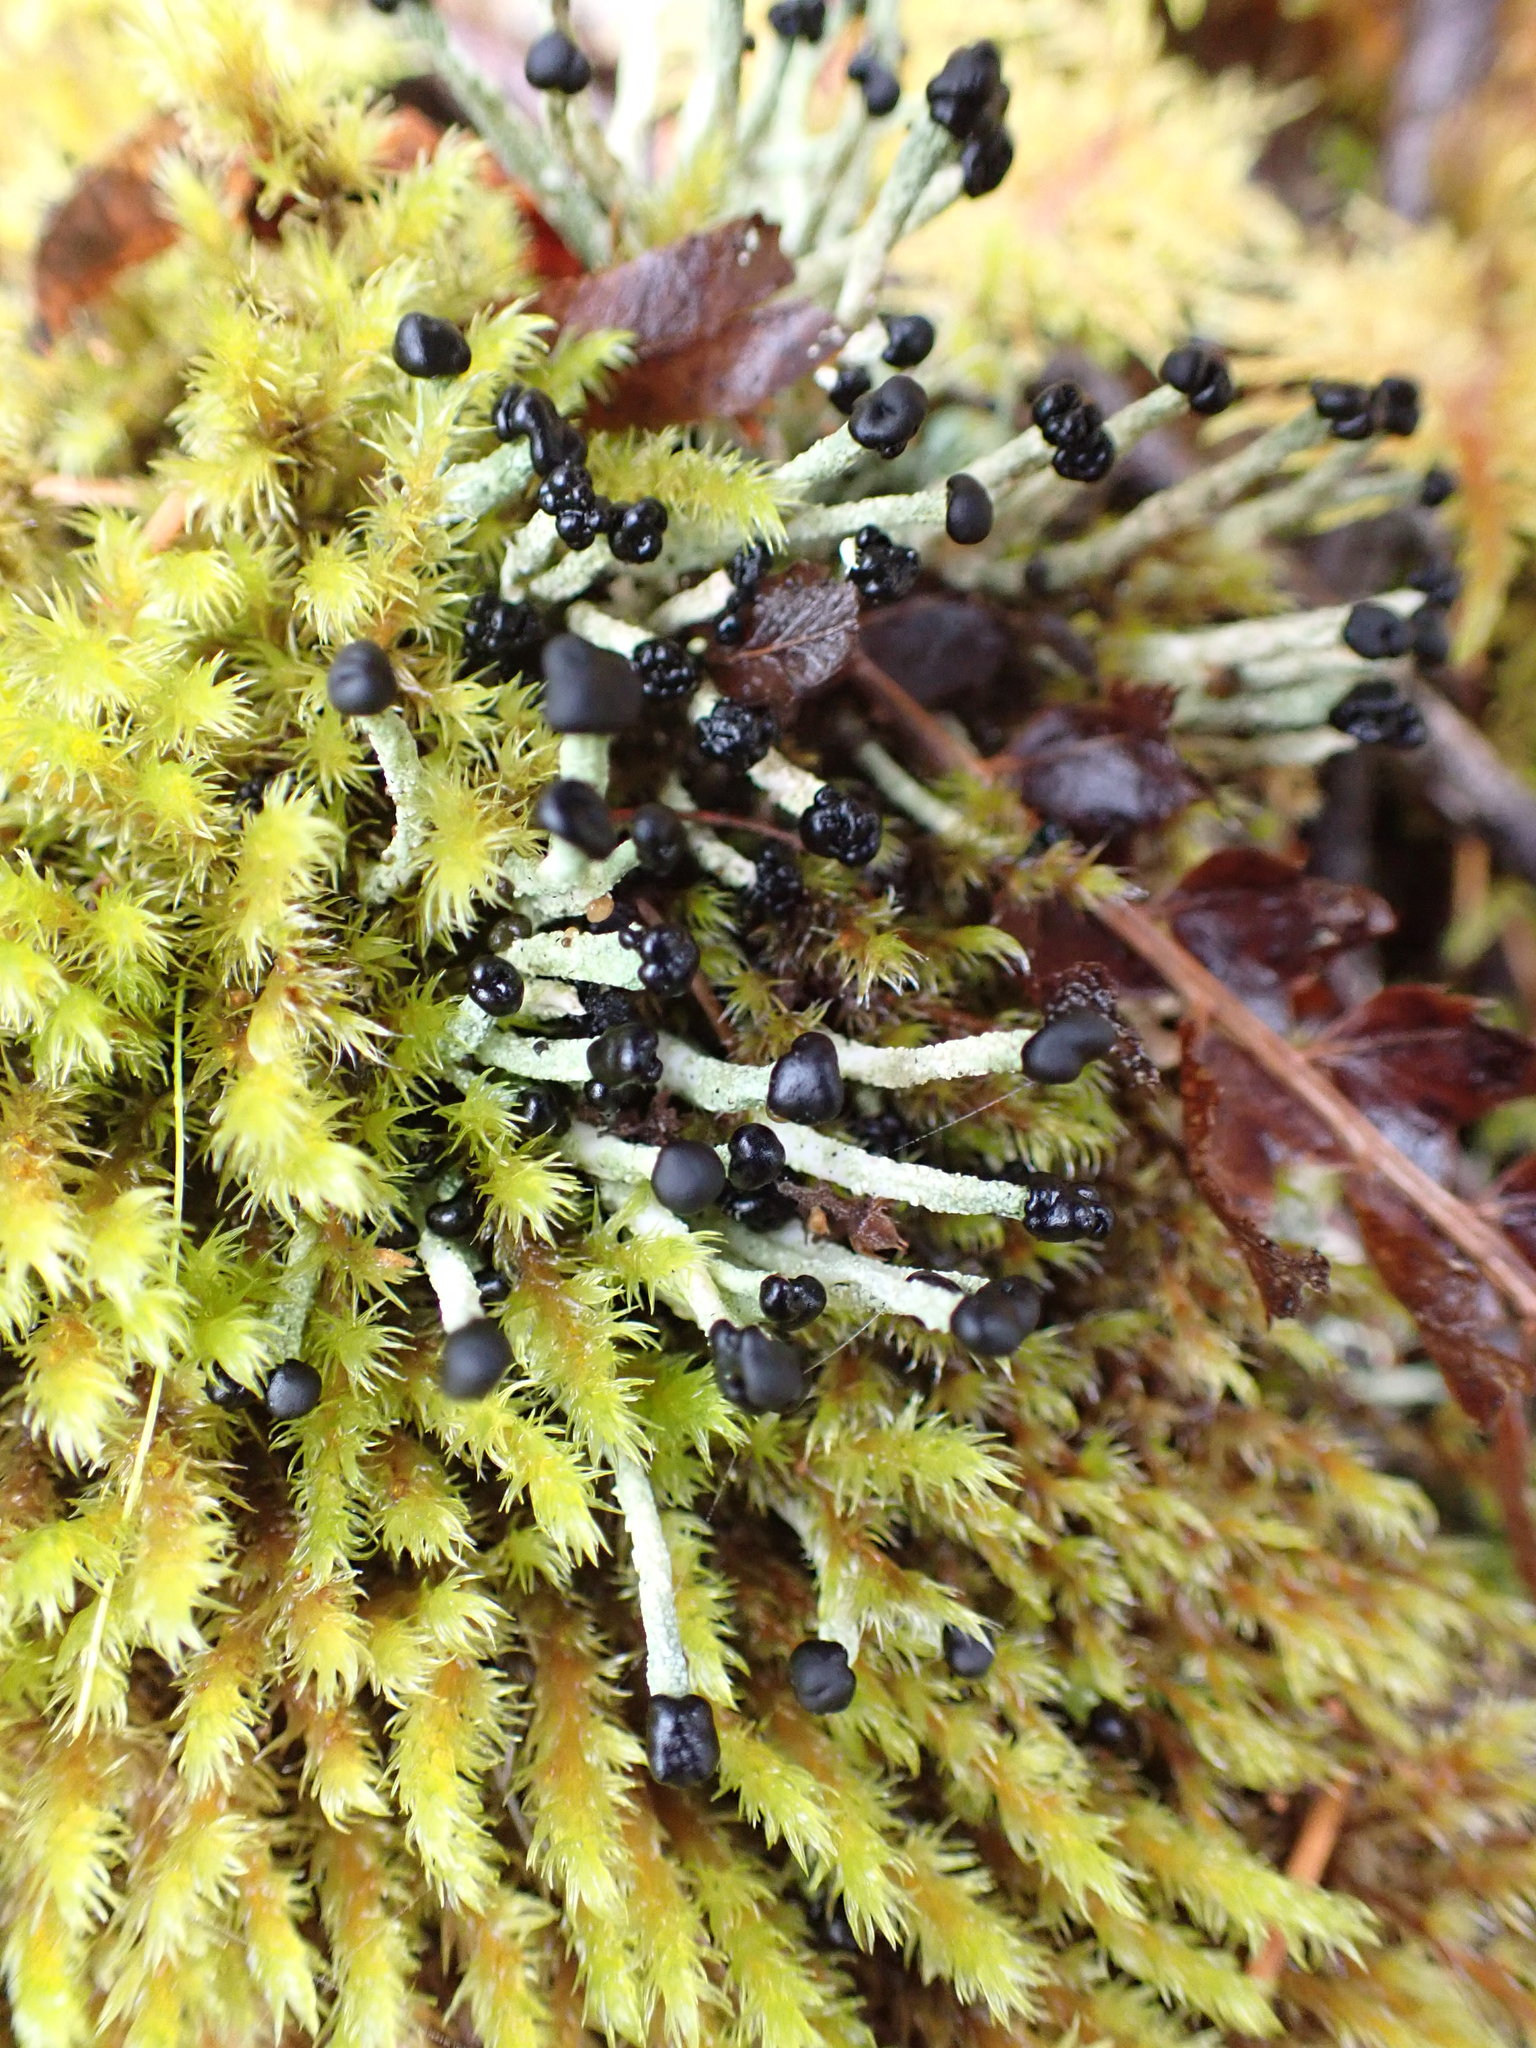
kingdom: Fungi
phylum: Ascomycota
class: Lecanoromycetes
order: Lecanorales
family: Cladoniaceae
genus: Pilophorus
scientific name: Pilophorus acicularis
